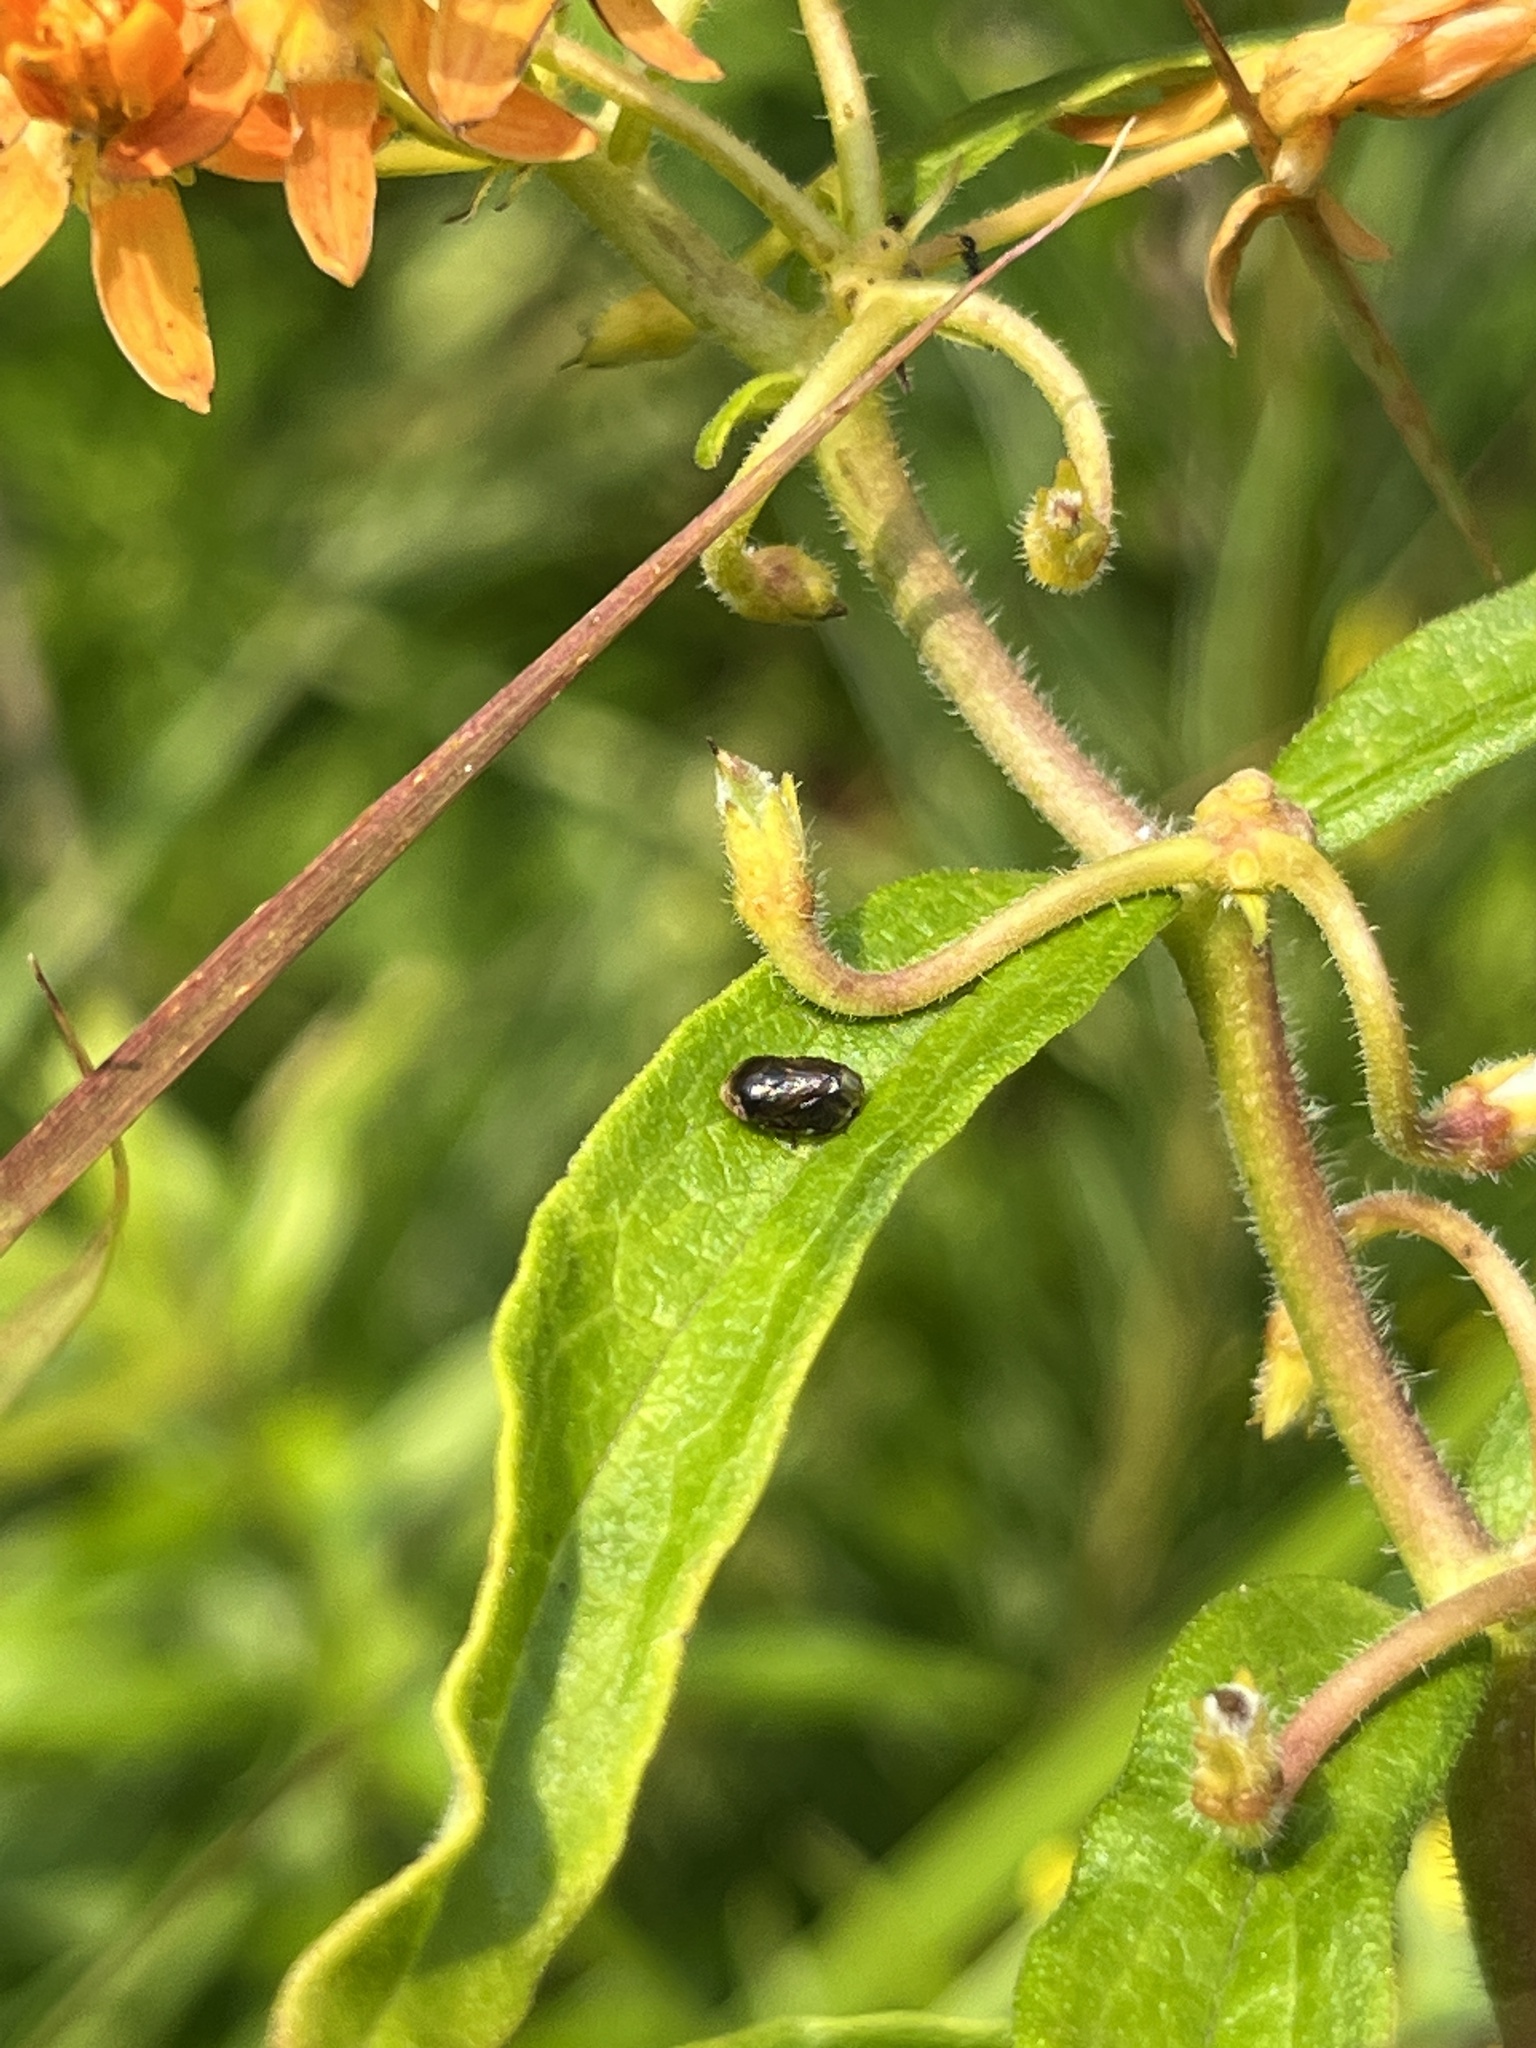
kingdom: Animalia
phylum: Arthropoda
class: Insecta
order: Hemiptera
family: Clastopteridae
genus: Clastoptera
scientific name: Clastoptera xanthocephala
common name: Sunflower spittlebug
